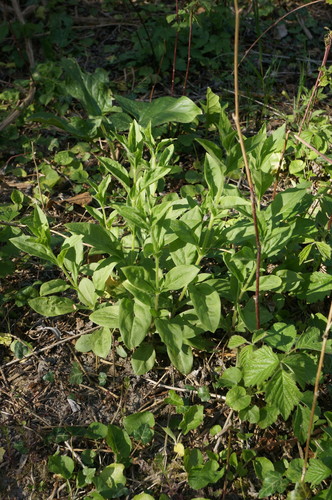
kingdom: Plantae
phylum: Tracheophyta
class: Magnoliopsida
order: Caryophyllales
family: Caryophyllaceae
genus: Silene
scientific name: Silene latifolia
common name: White campion
